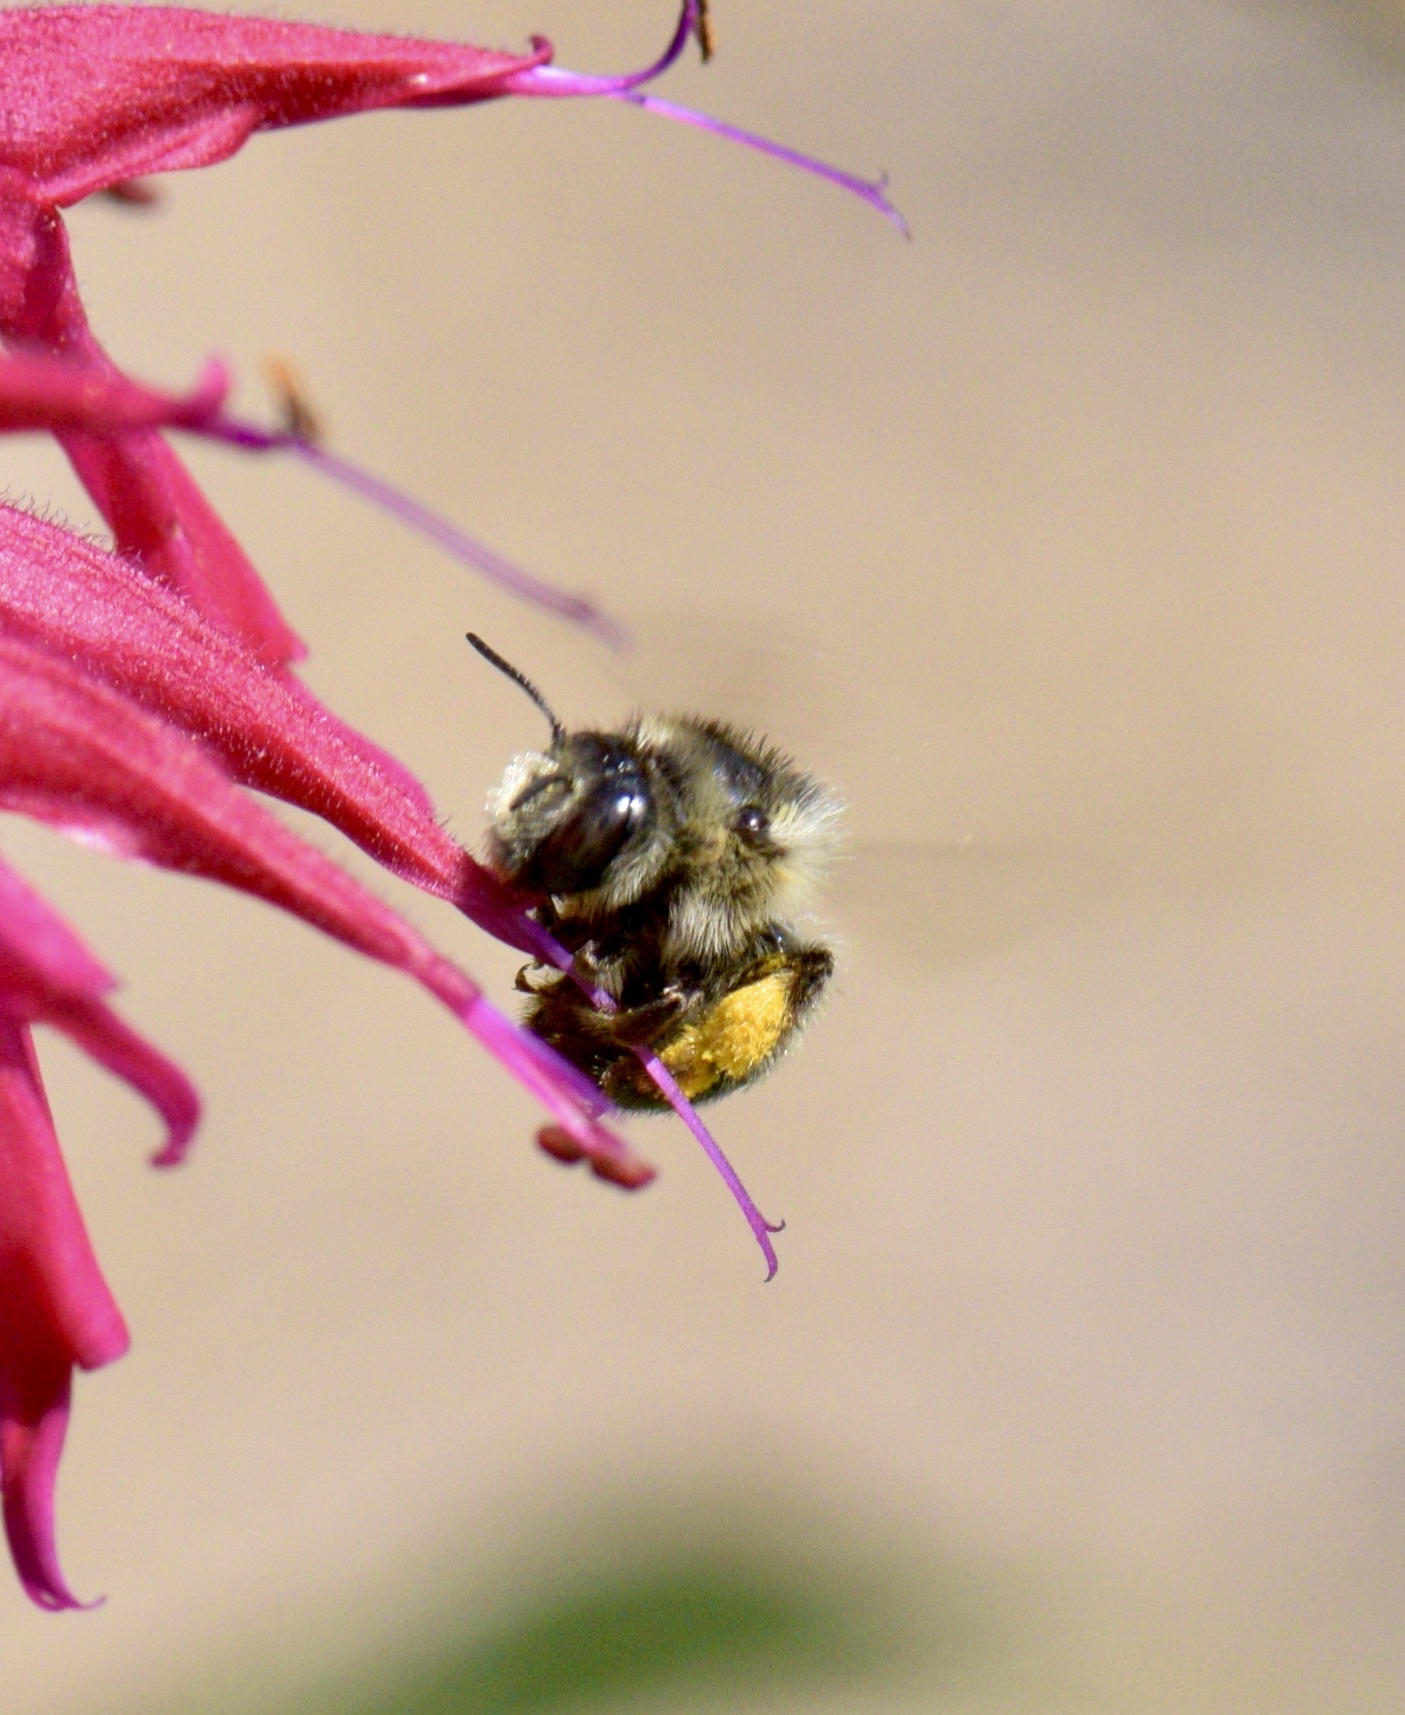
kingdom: Animalia
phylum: Arthropoda
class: Insecta
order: Hymenoptera
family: Apidae
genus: Anthophora
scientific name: Anthophora terminalis
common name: Orange-tipped wood-digger bee
